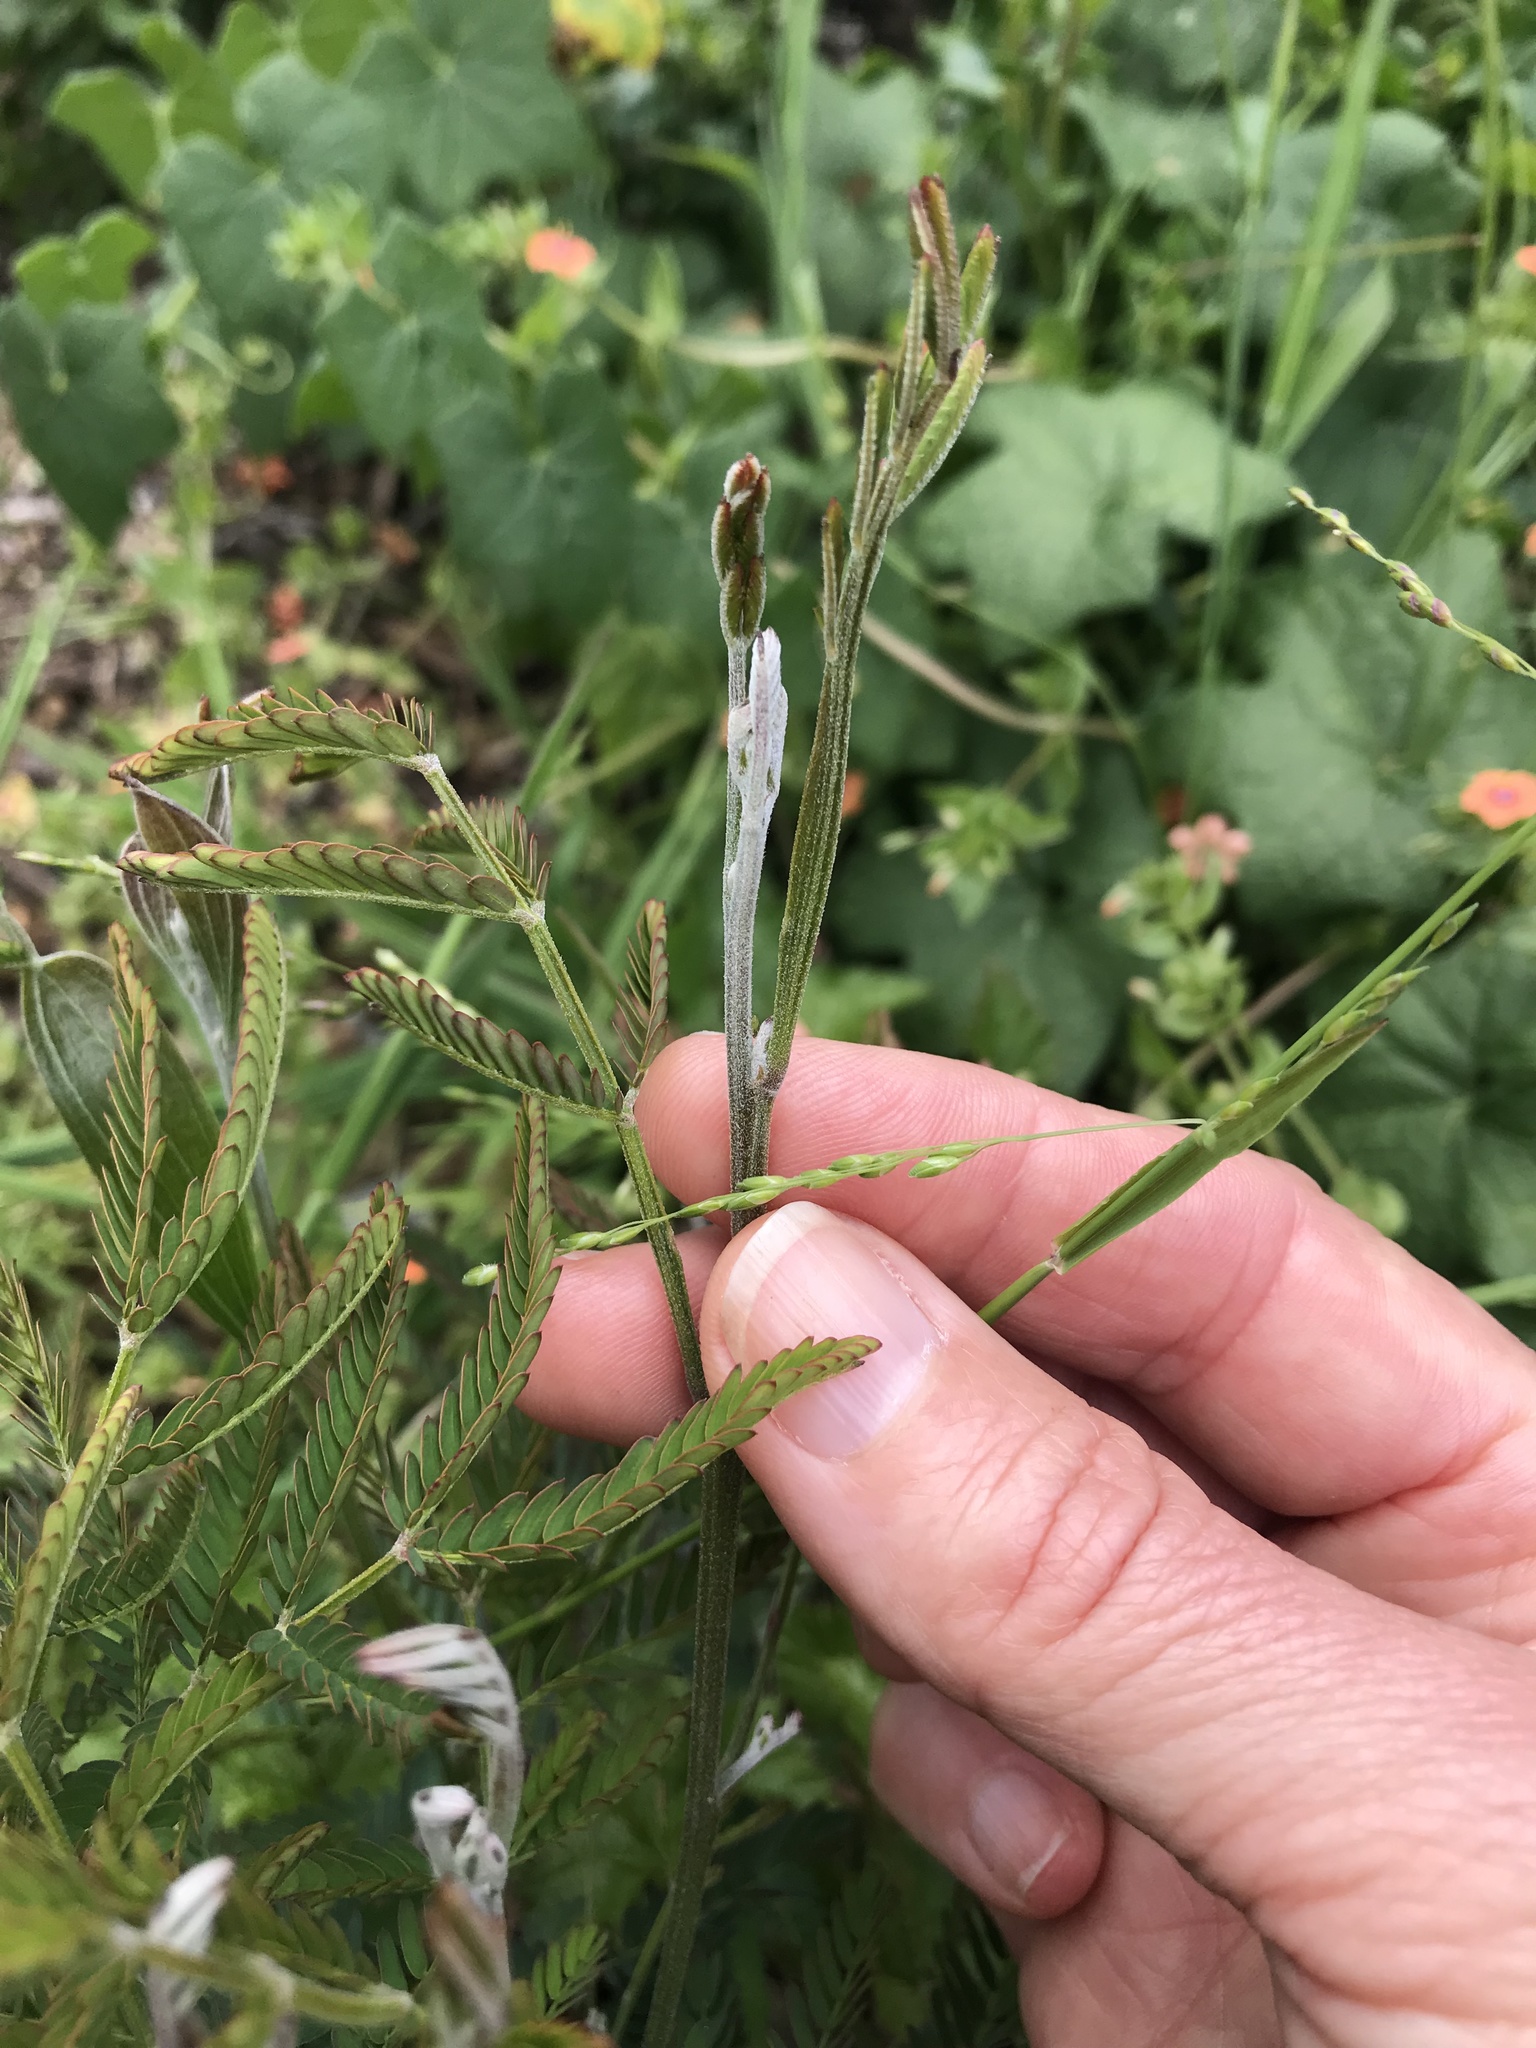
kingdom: Plantae
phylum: Tracheophyta
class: Magnoliopsida
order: Fabales
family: Fabaceae
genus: Acacia
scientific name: Acacia melanoxylon
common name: Blackwood
